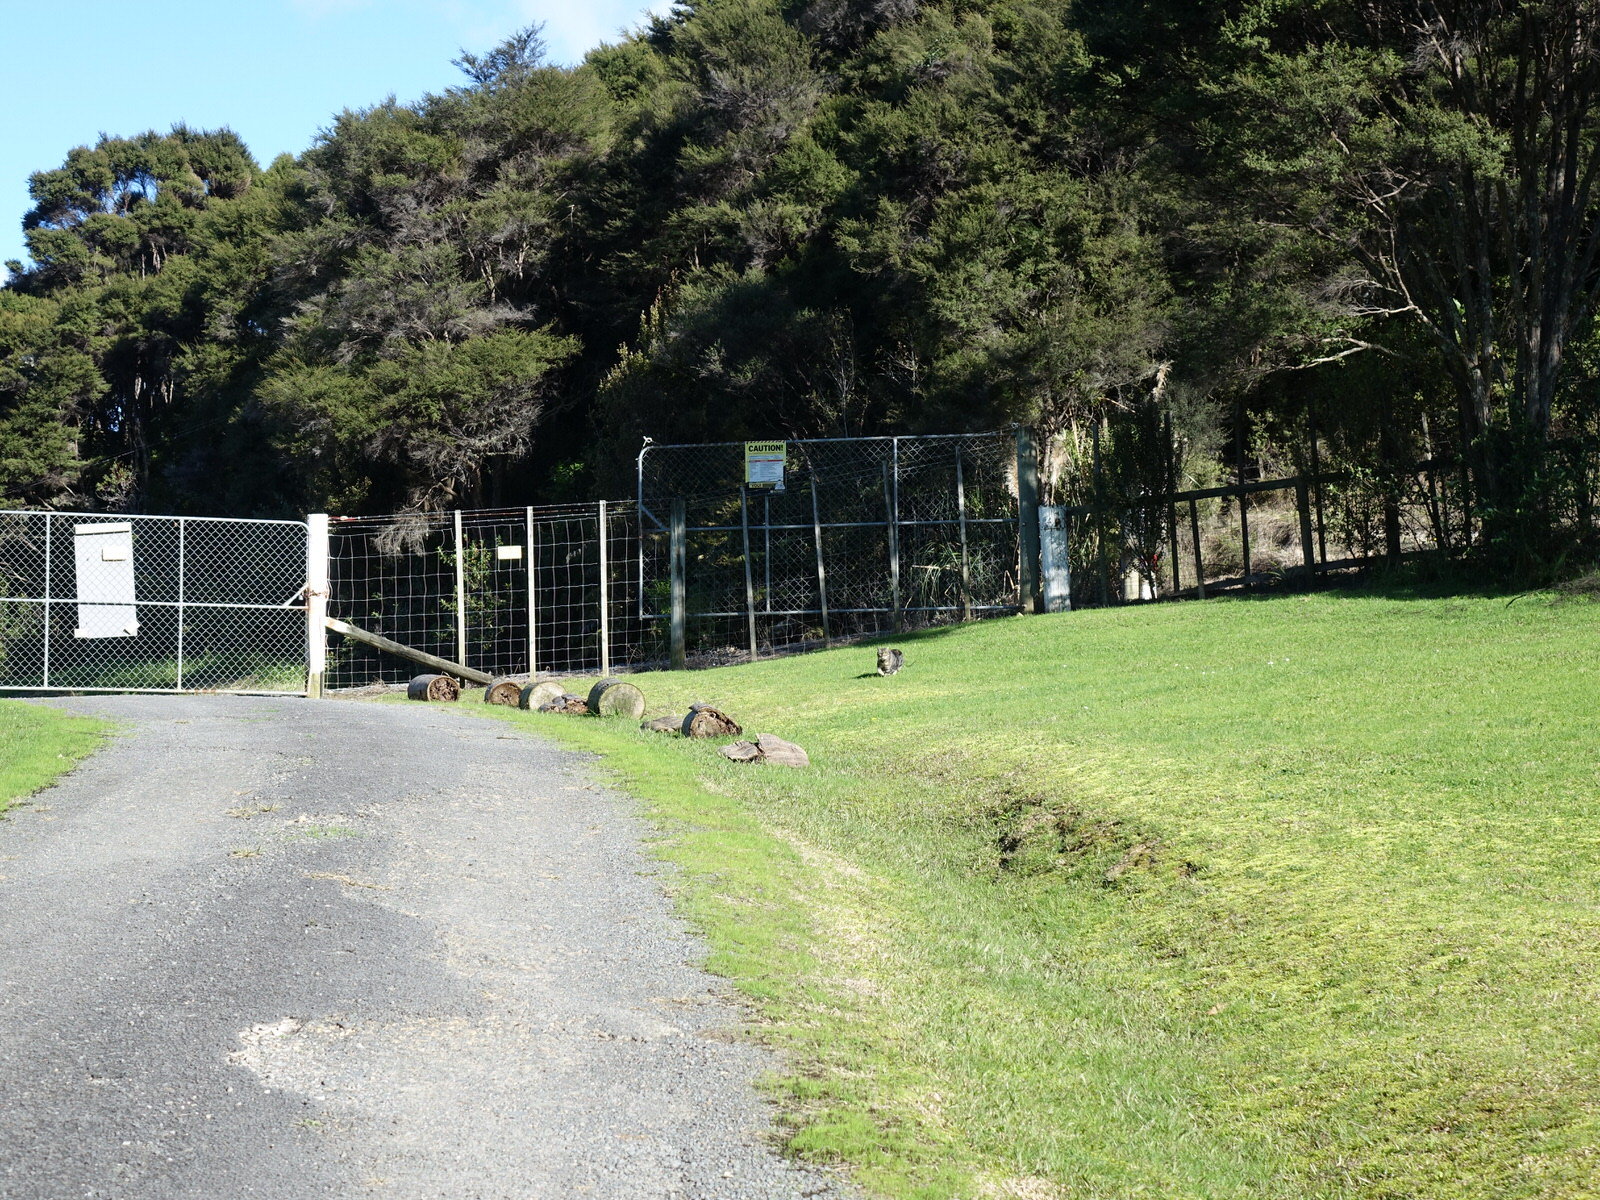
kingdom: Animalia
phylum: Chordata
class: Mammalia
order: Carnivora
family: Felidae
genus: Felis
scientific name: Felis catus
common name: Domestic cat
